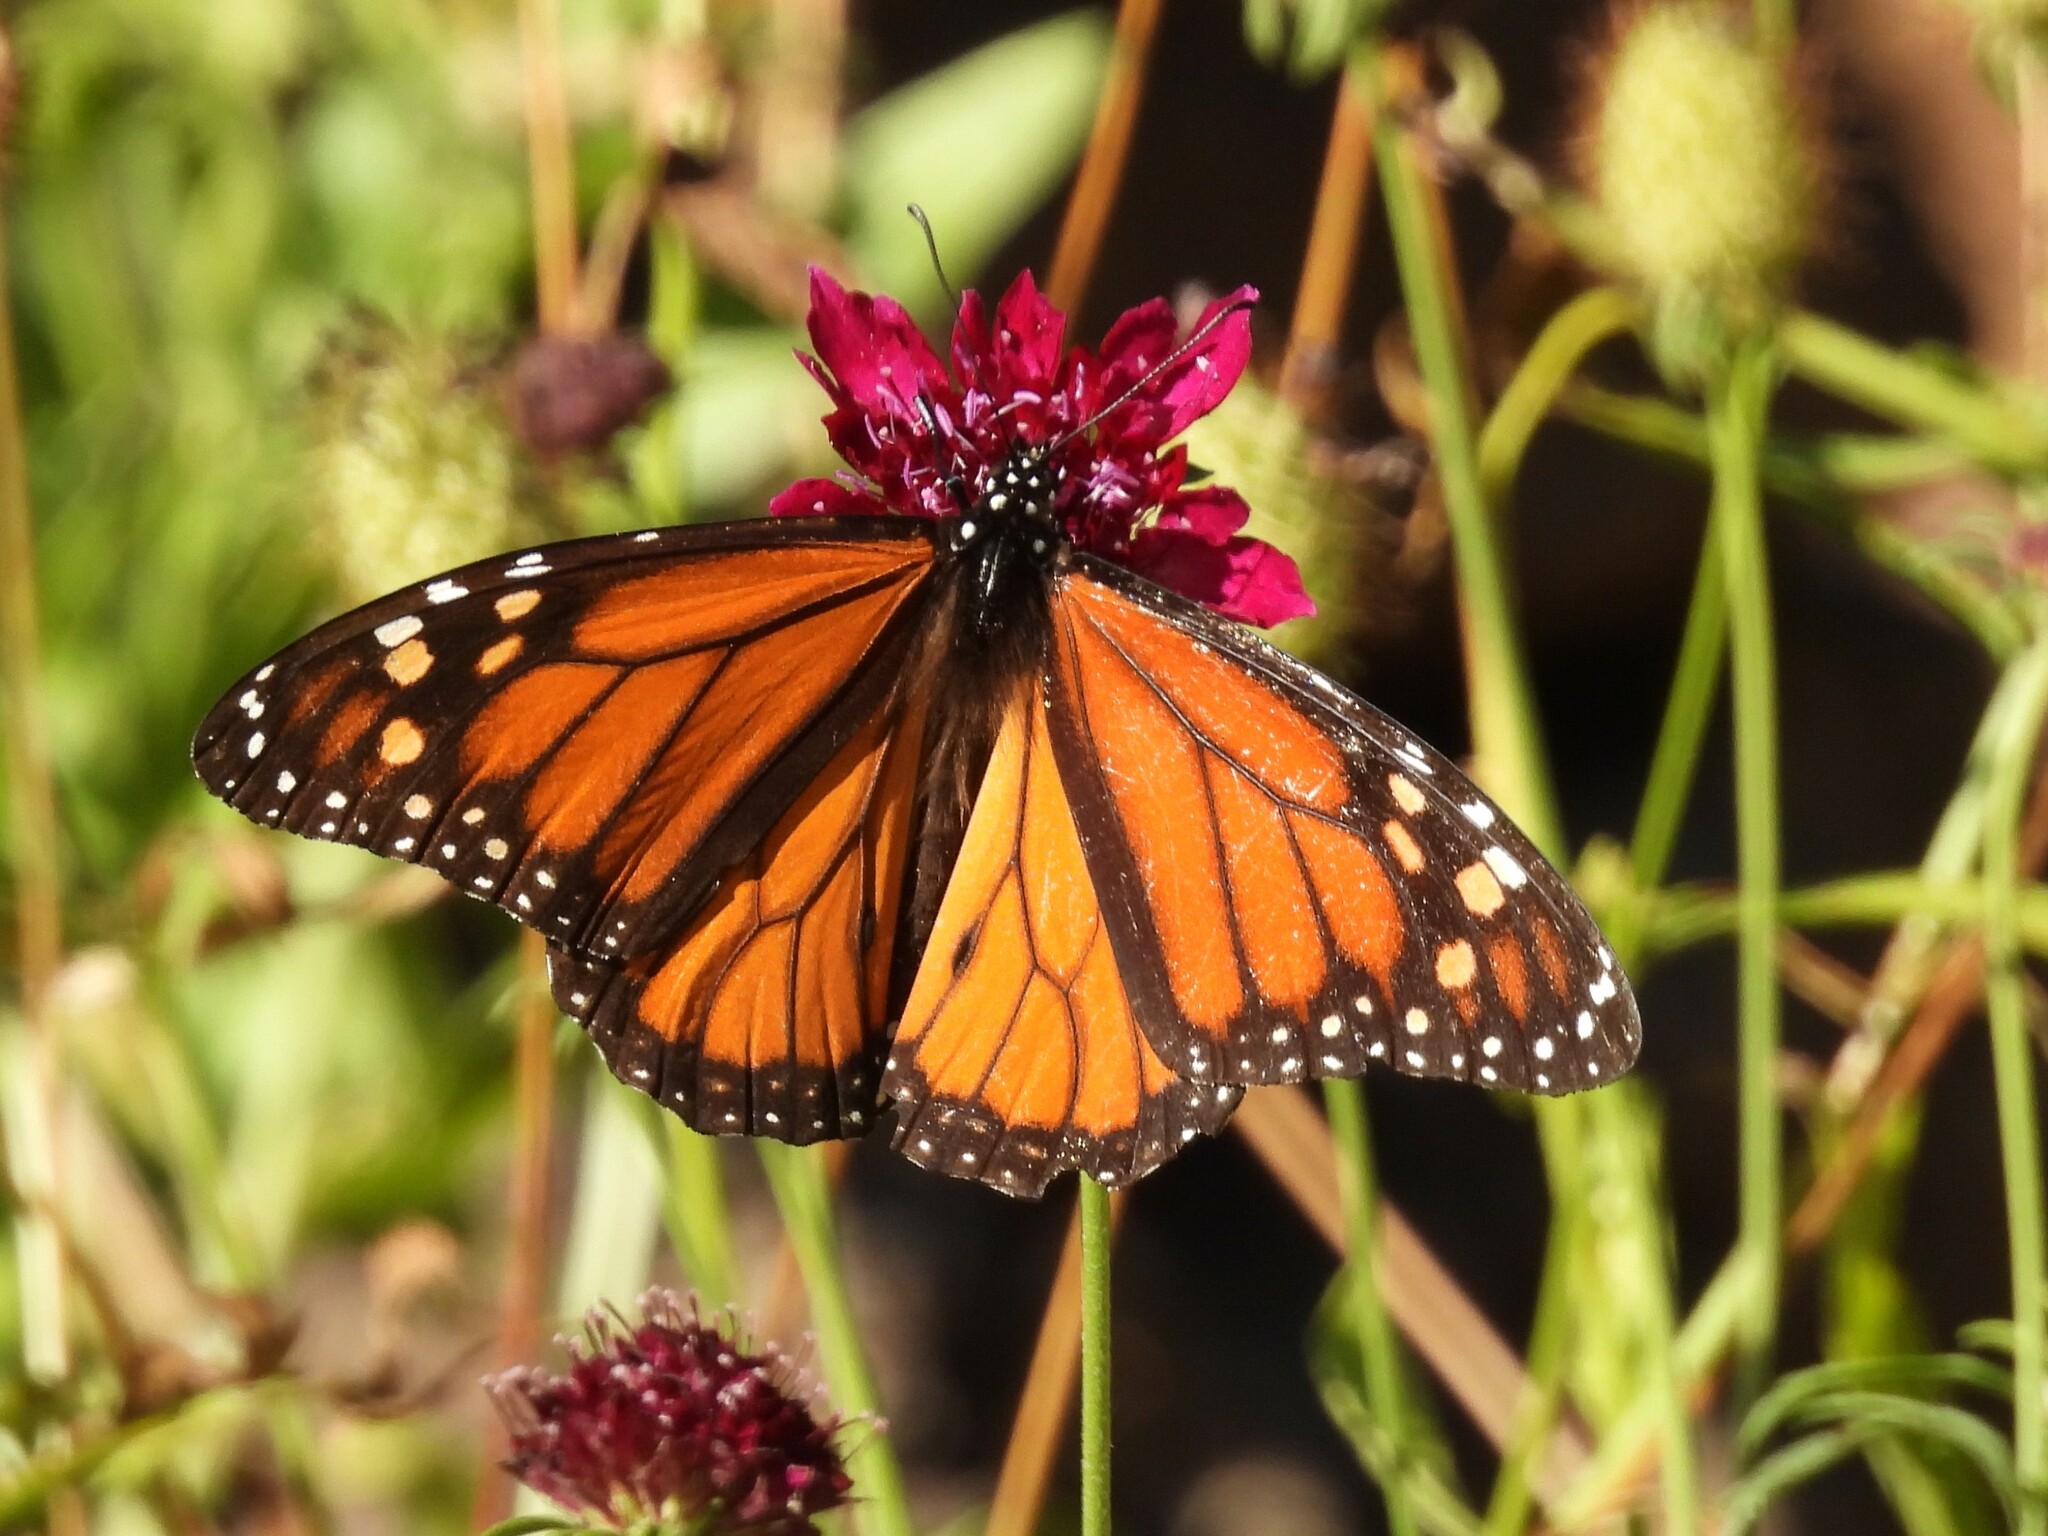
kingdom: Animalia
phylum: Arthropoda
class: Insecta
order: Lepidoptera
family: Nymphalidae
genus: Danaus
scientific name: Danaus plexippus
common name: Monarch
